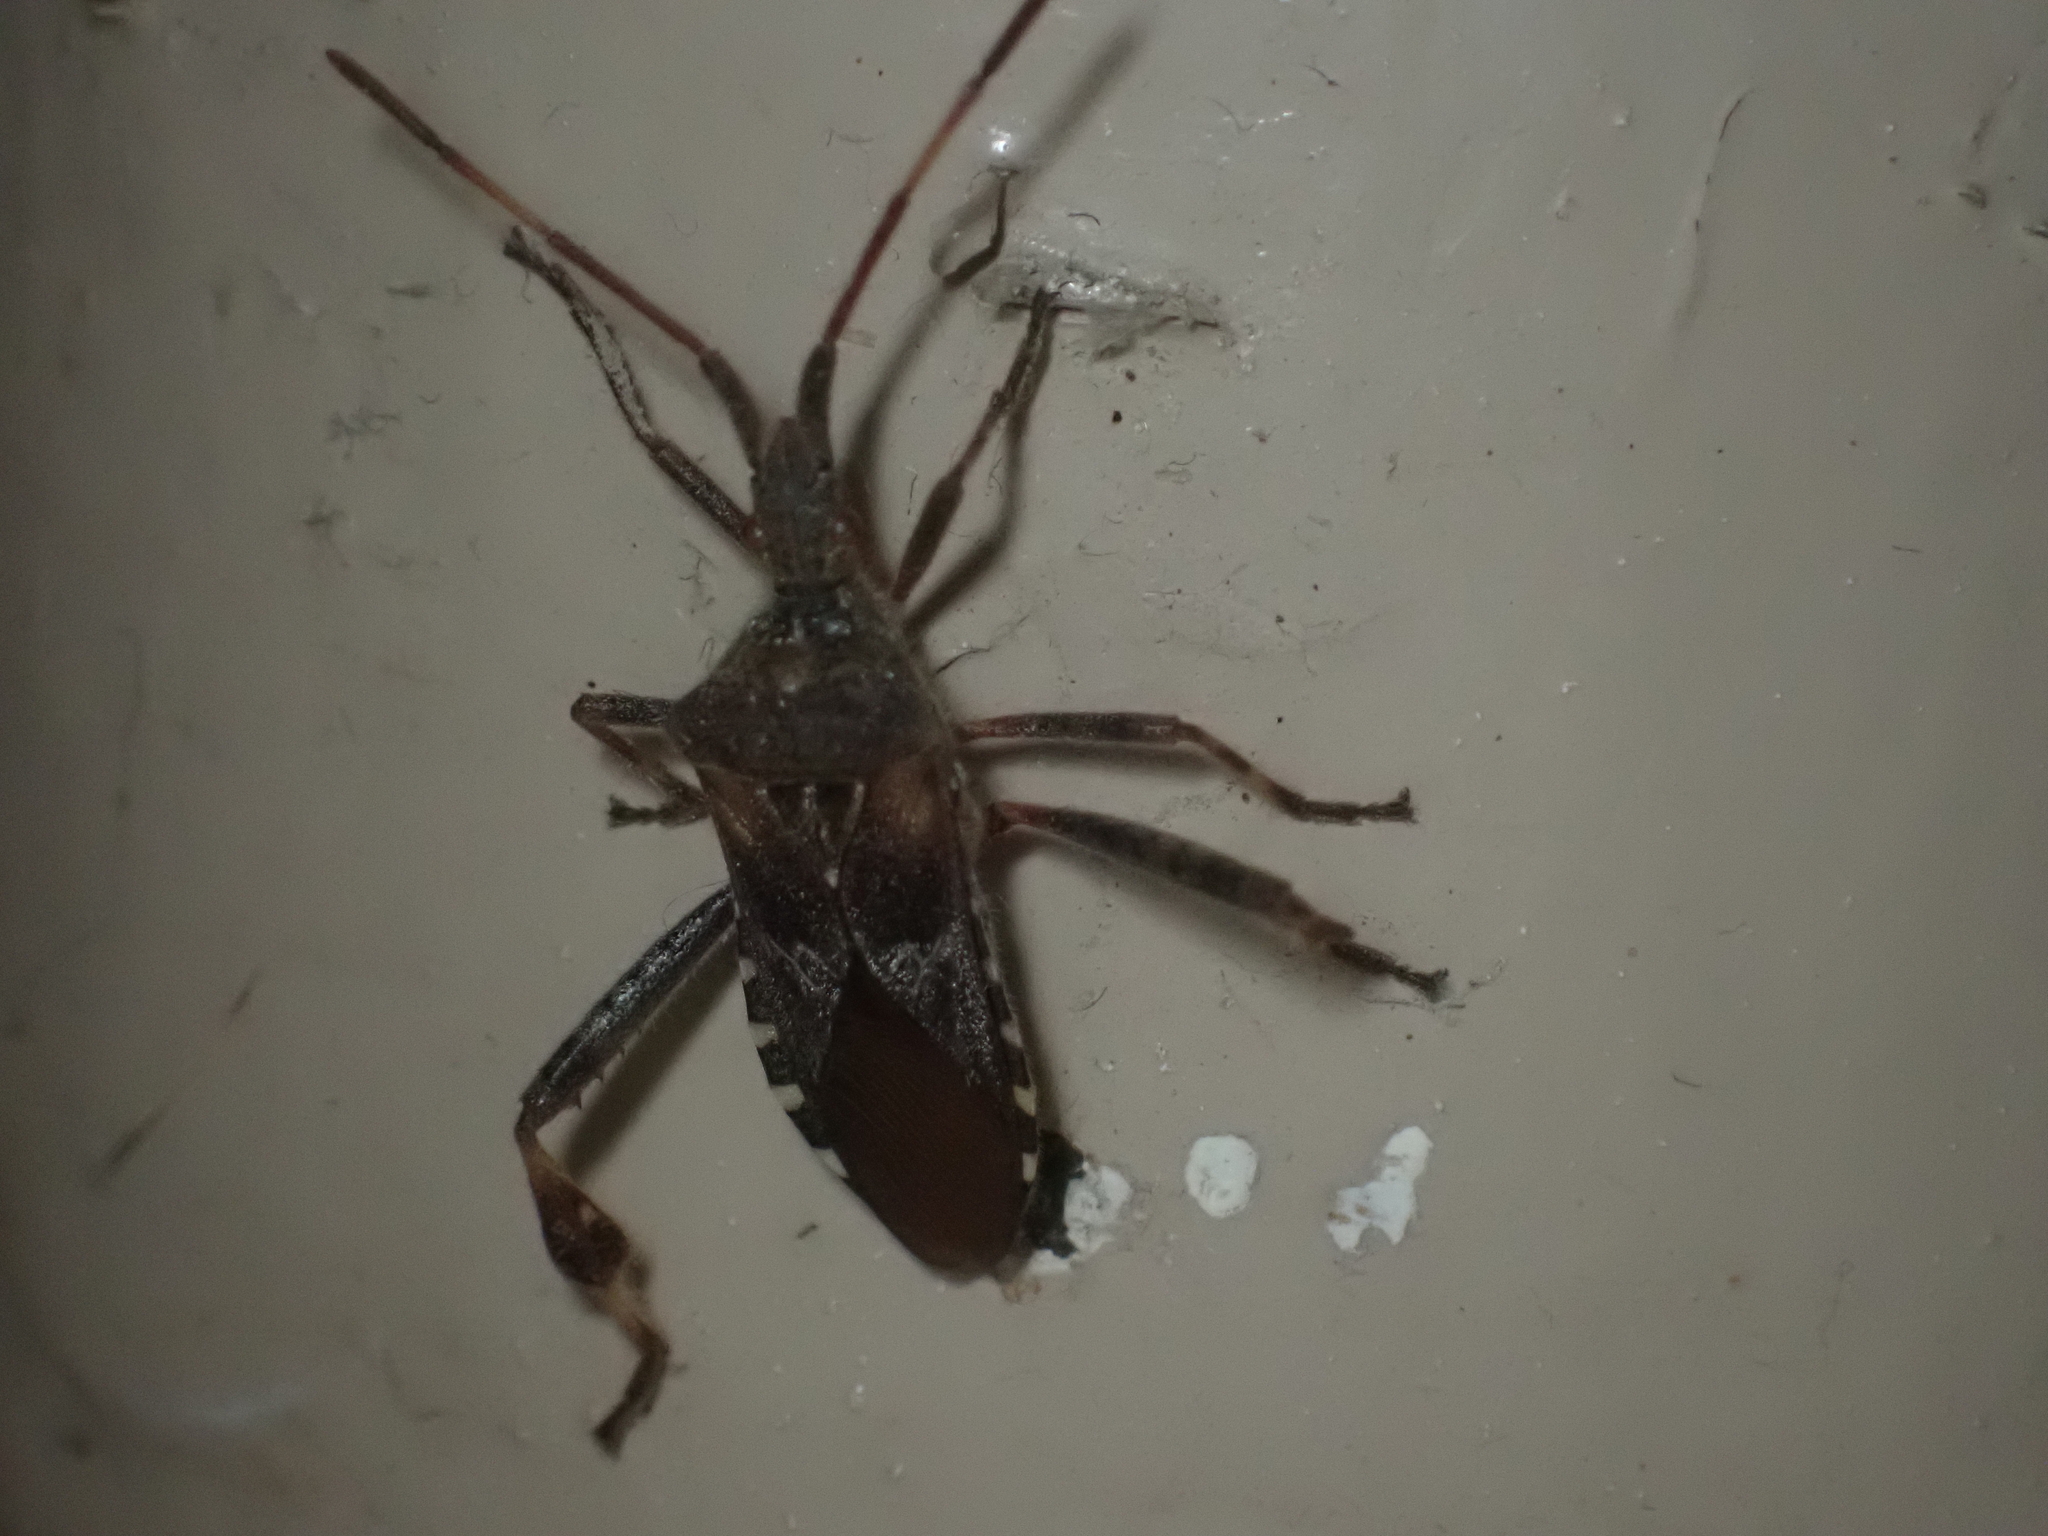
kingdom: Animalia
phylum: Arthropoda
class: Insecta
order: Hemiptera
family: Coreidae
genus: Leptoglossus
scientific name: Leptoglossus occidentalis
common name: Western conifer-seed bug
